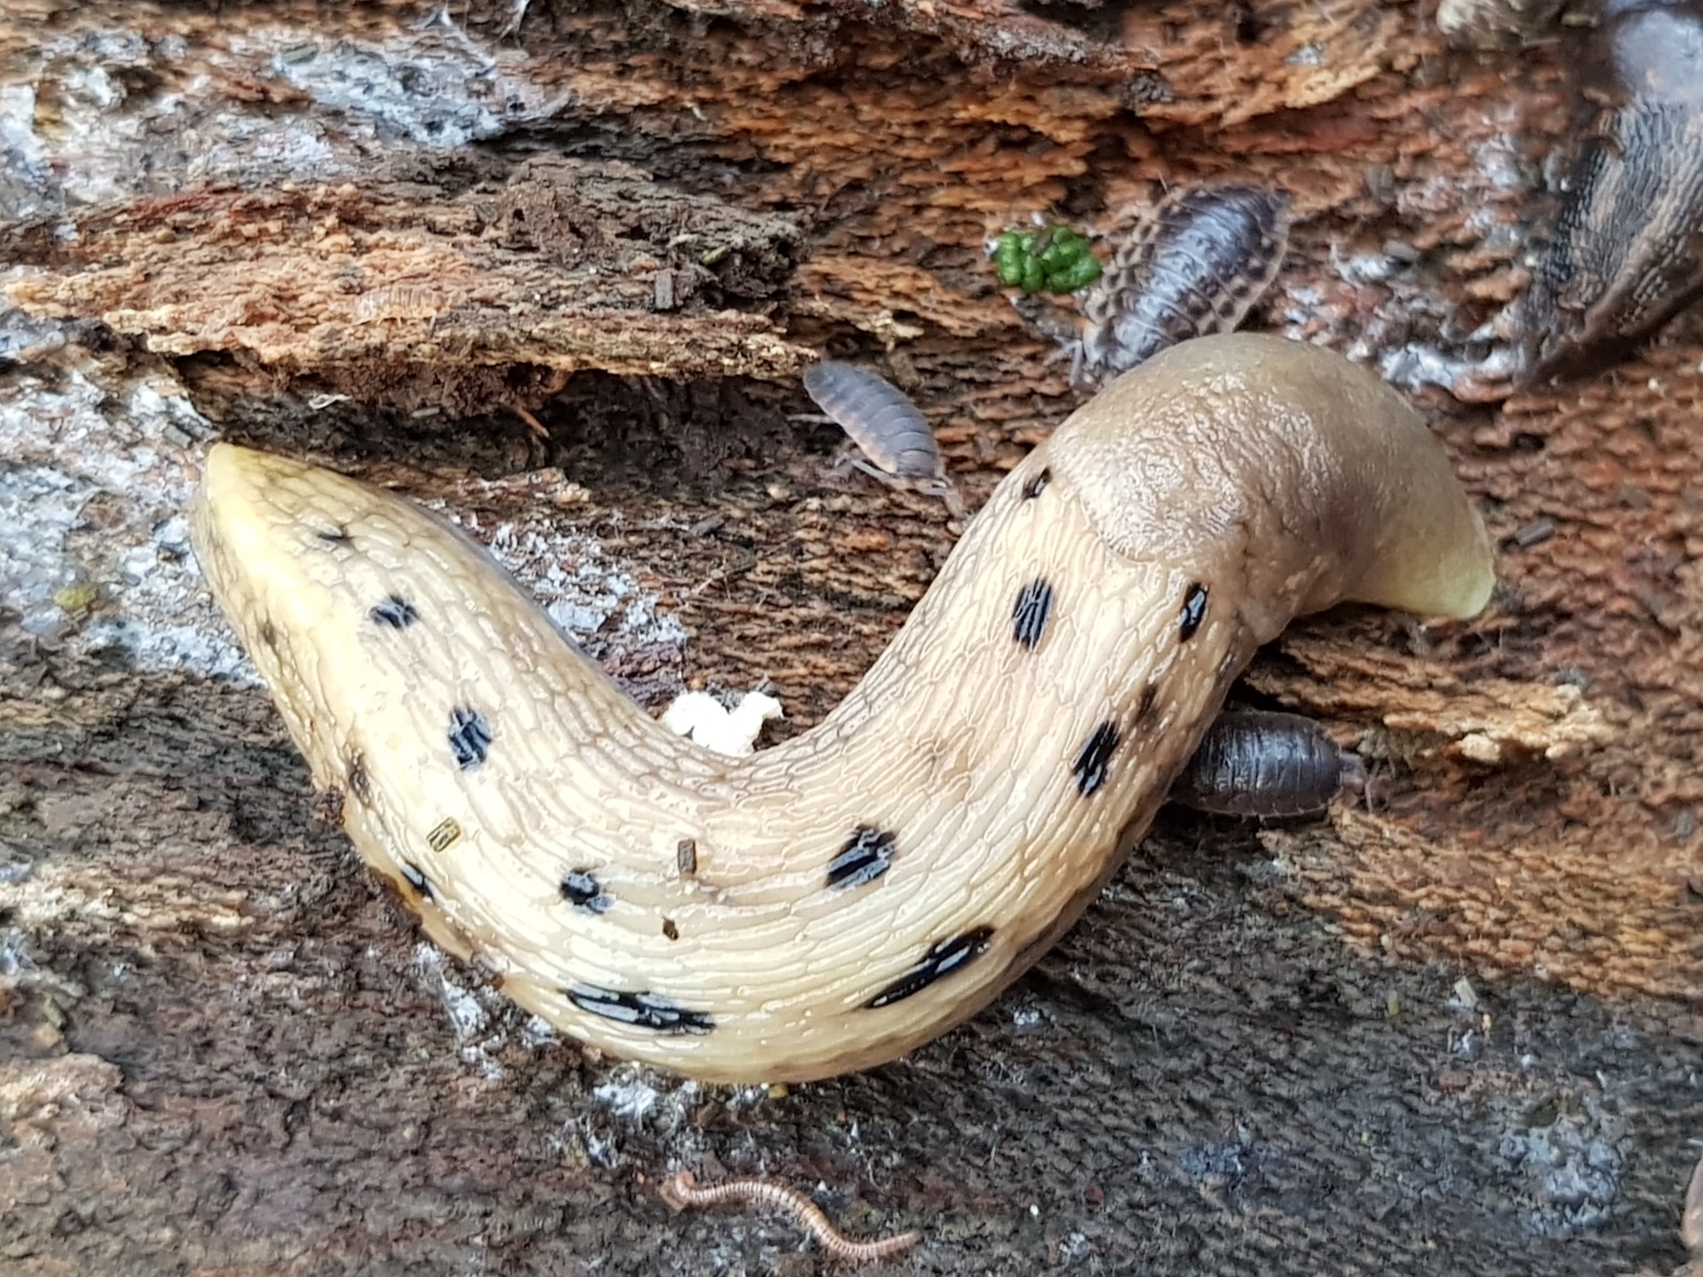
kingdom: Animalia
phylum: Mollusca
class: Gastropoda
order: Stylommatophora
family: Limacidae
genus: Limax
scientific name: Limax cinereoniger
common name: Ash-black slug
